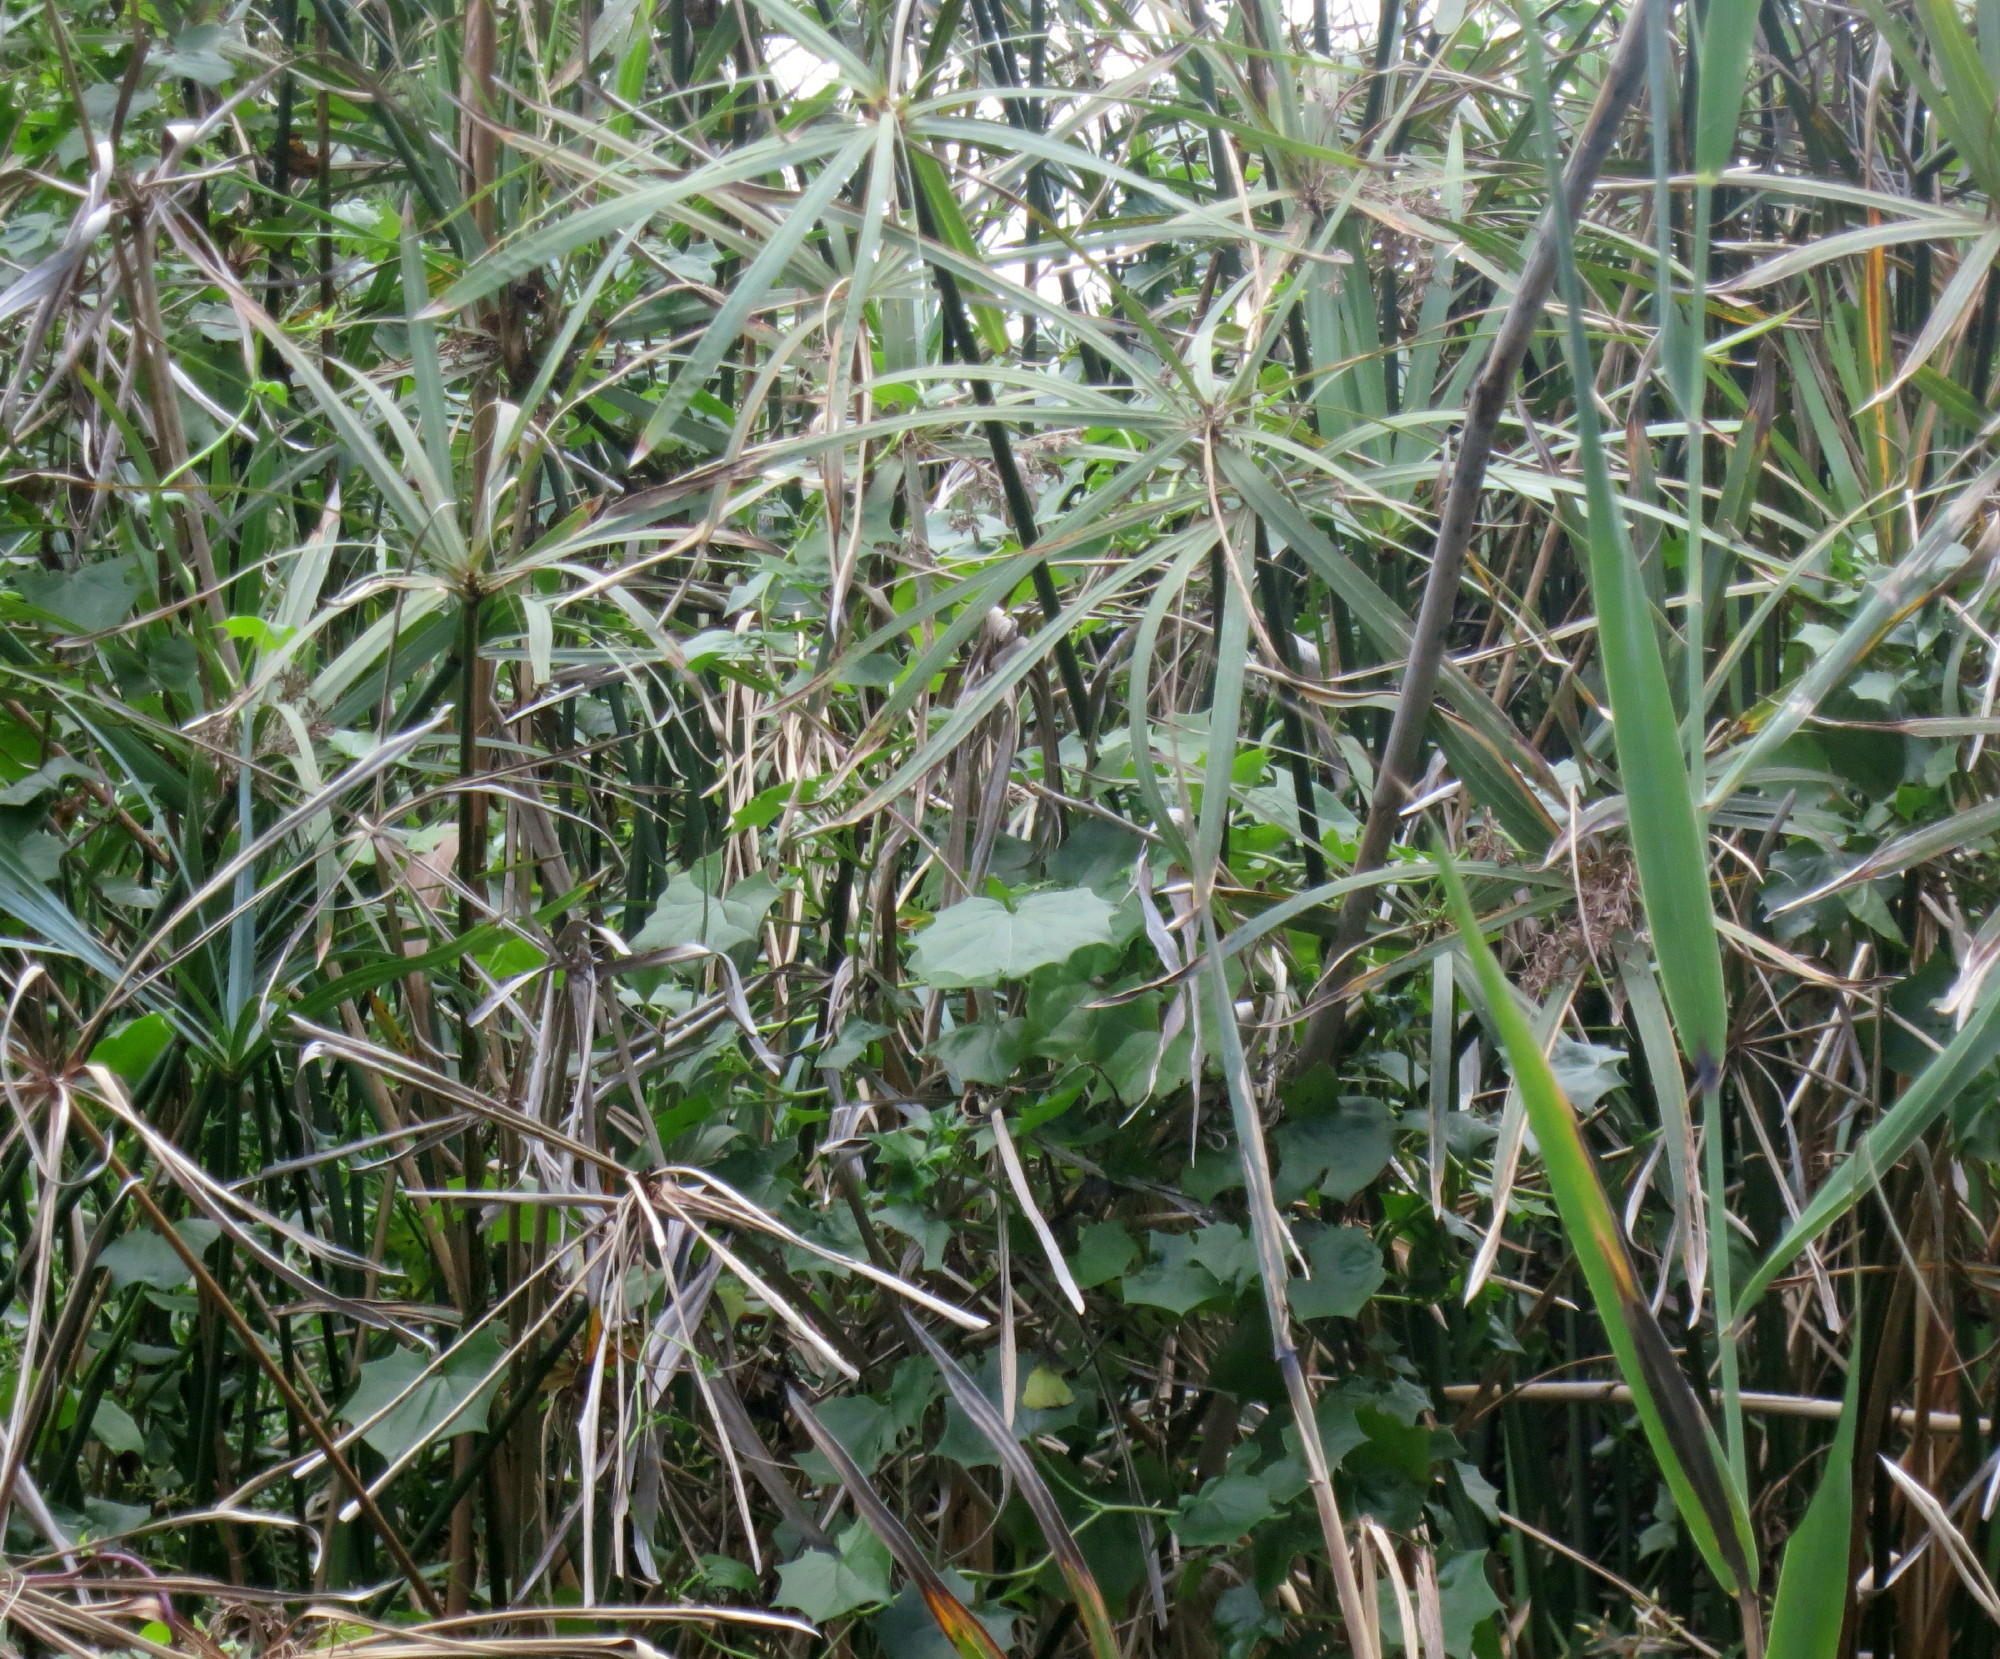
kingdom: Plantae
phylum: Tracheophyta
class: Liliopsida
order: Poales
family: Cyperaceae
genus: Cyperus
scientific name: Cyperus textilis
